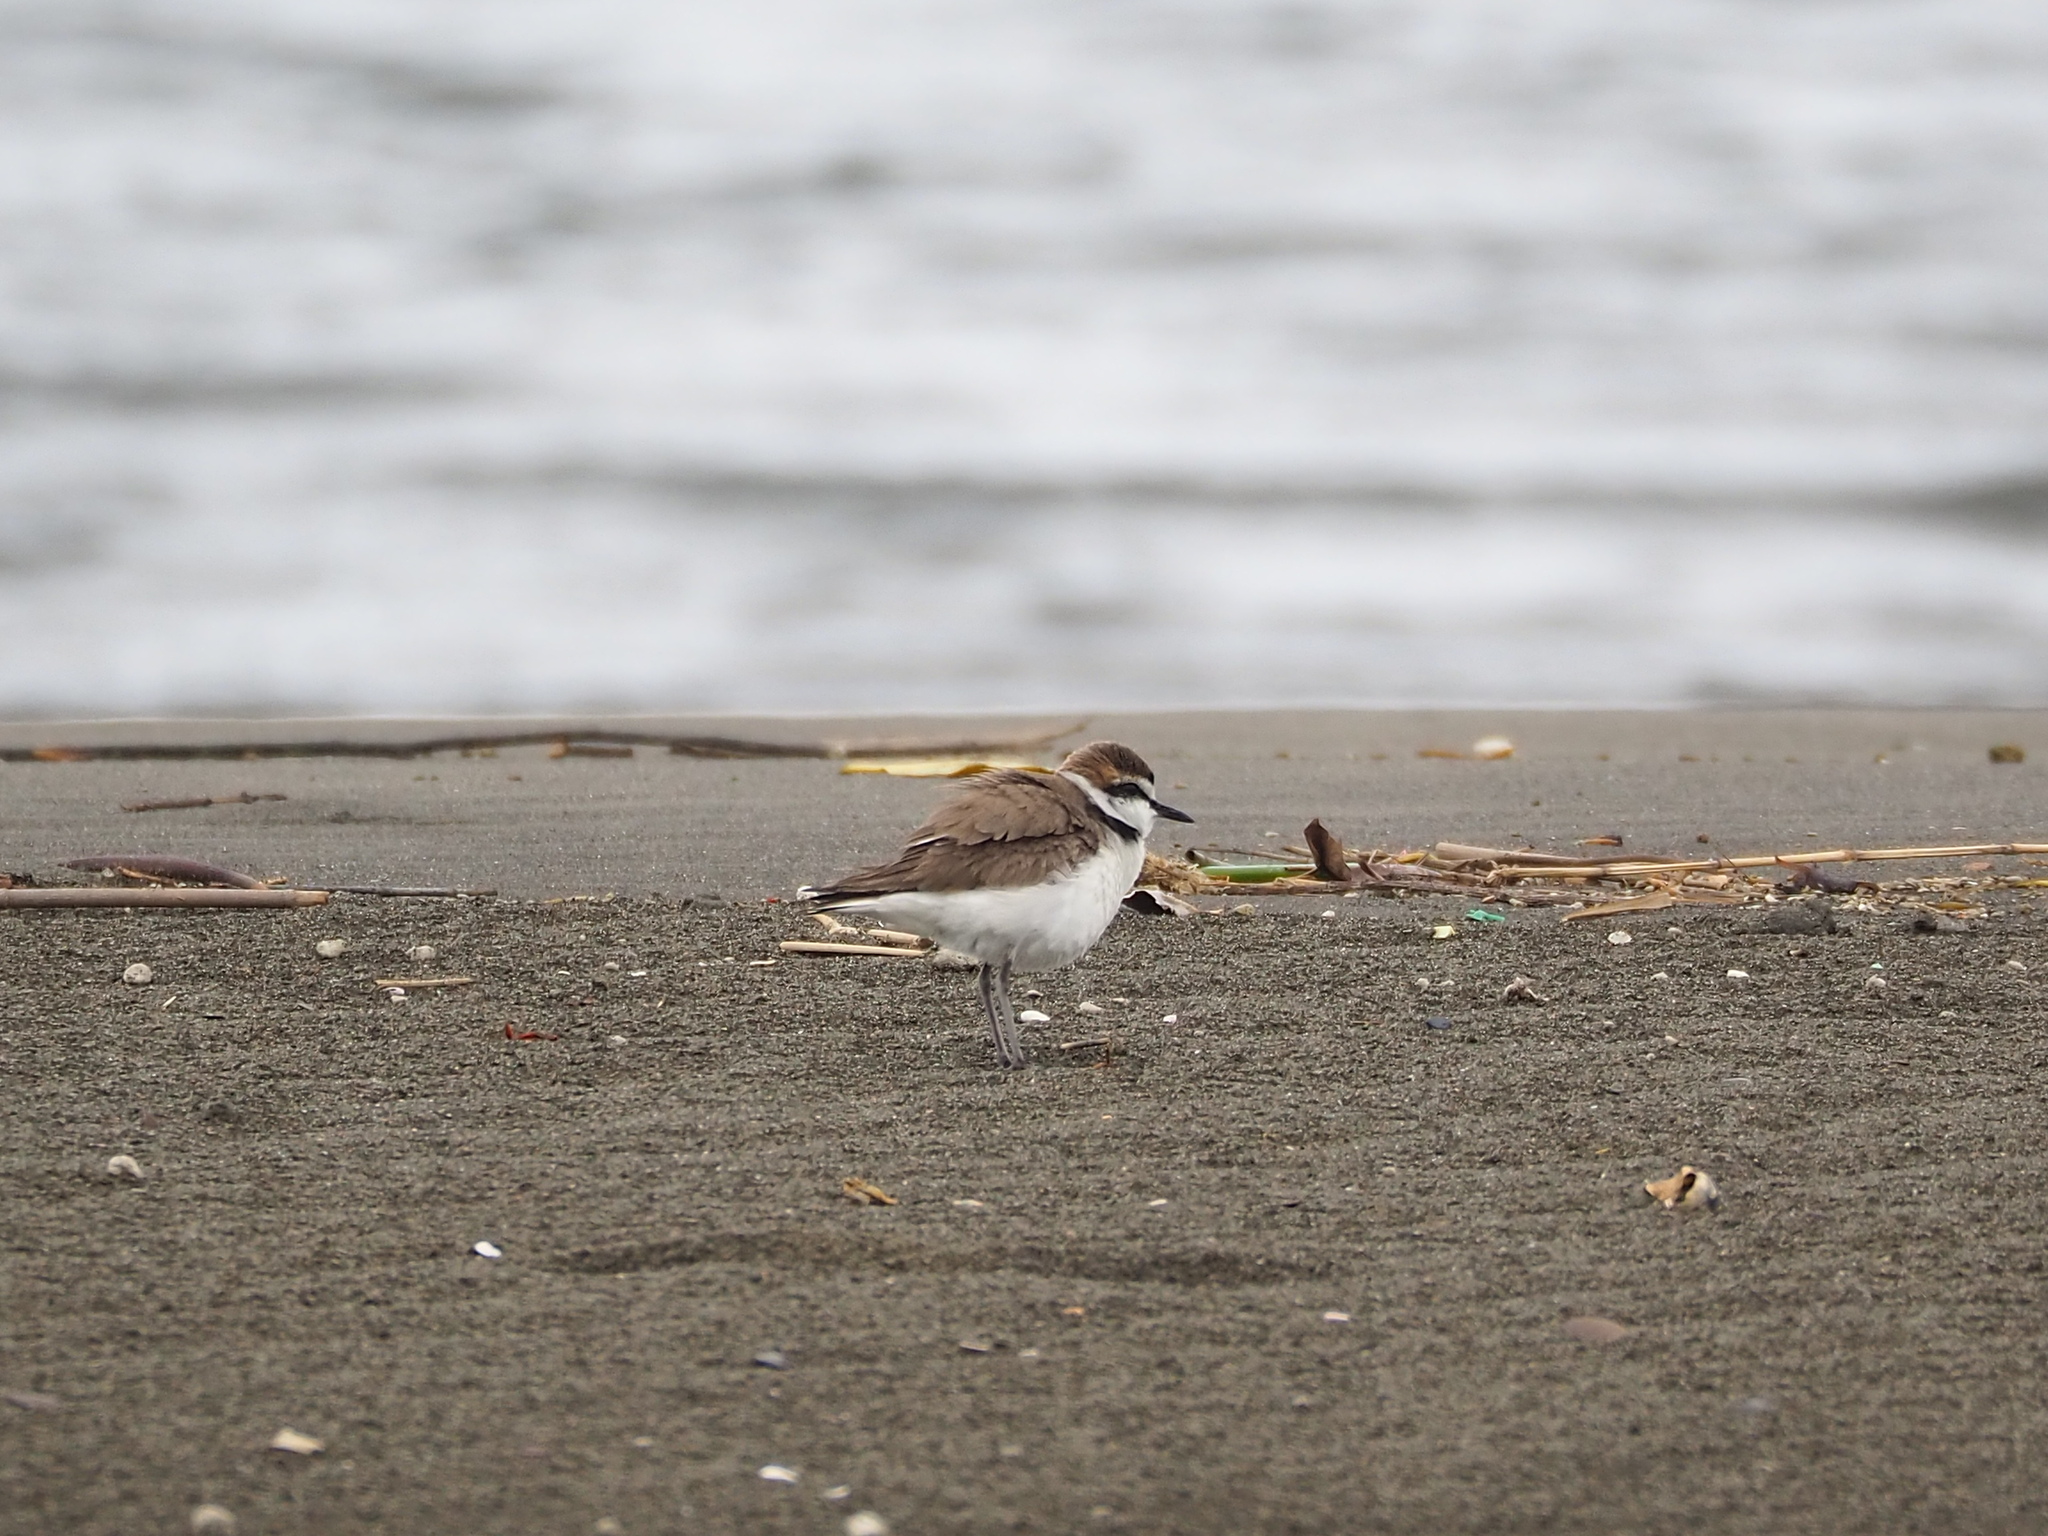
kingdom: Animalia
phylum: Chordata
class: Aves
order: Charadriiformes
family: Charadriidae
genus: Charadrius
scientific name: Charadrius alexandrinus
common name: Kentish plover
